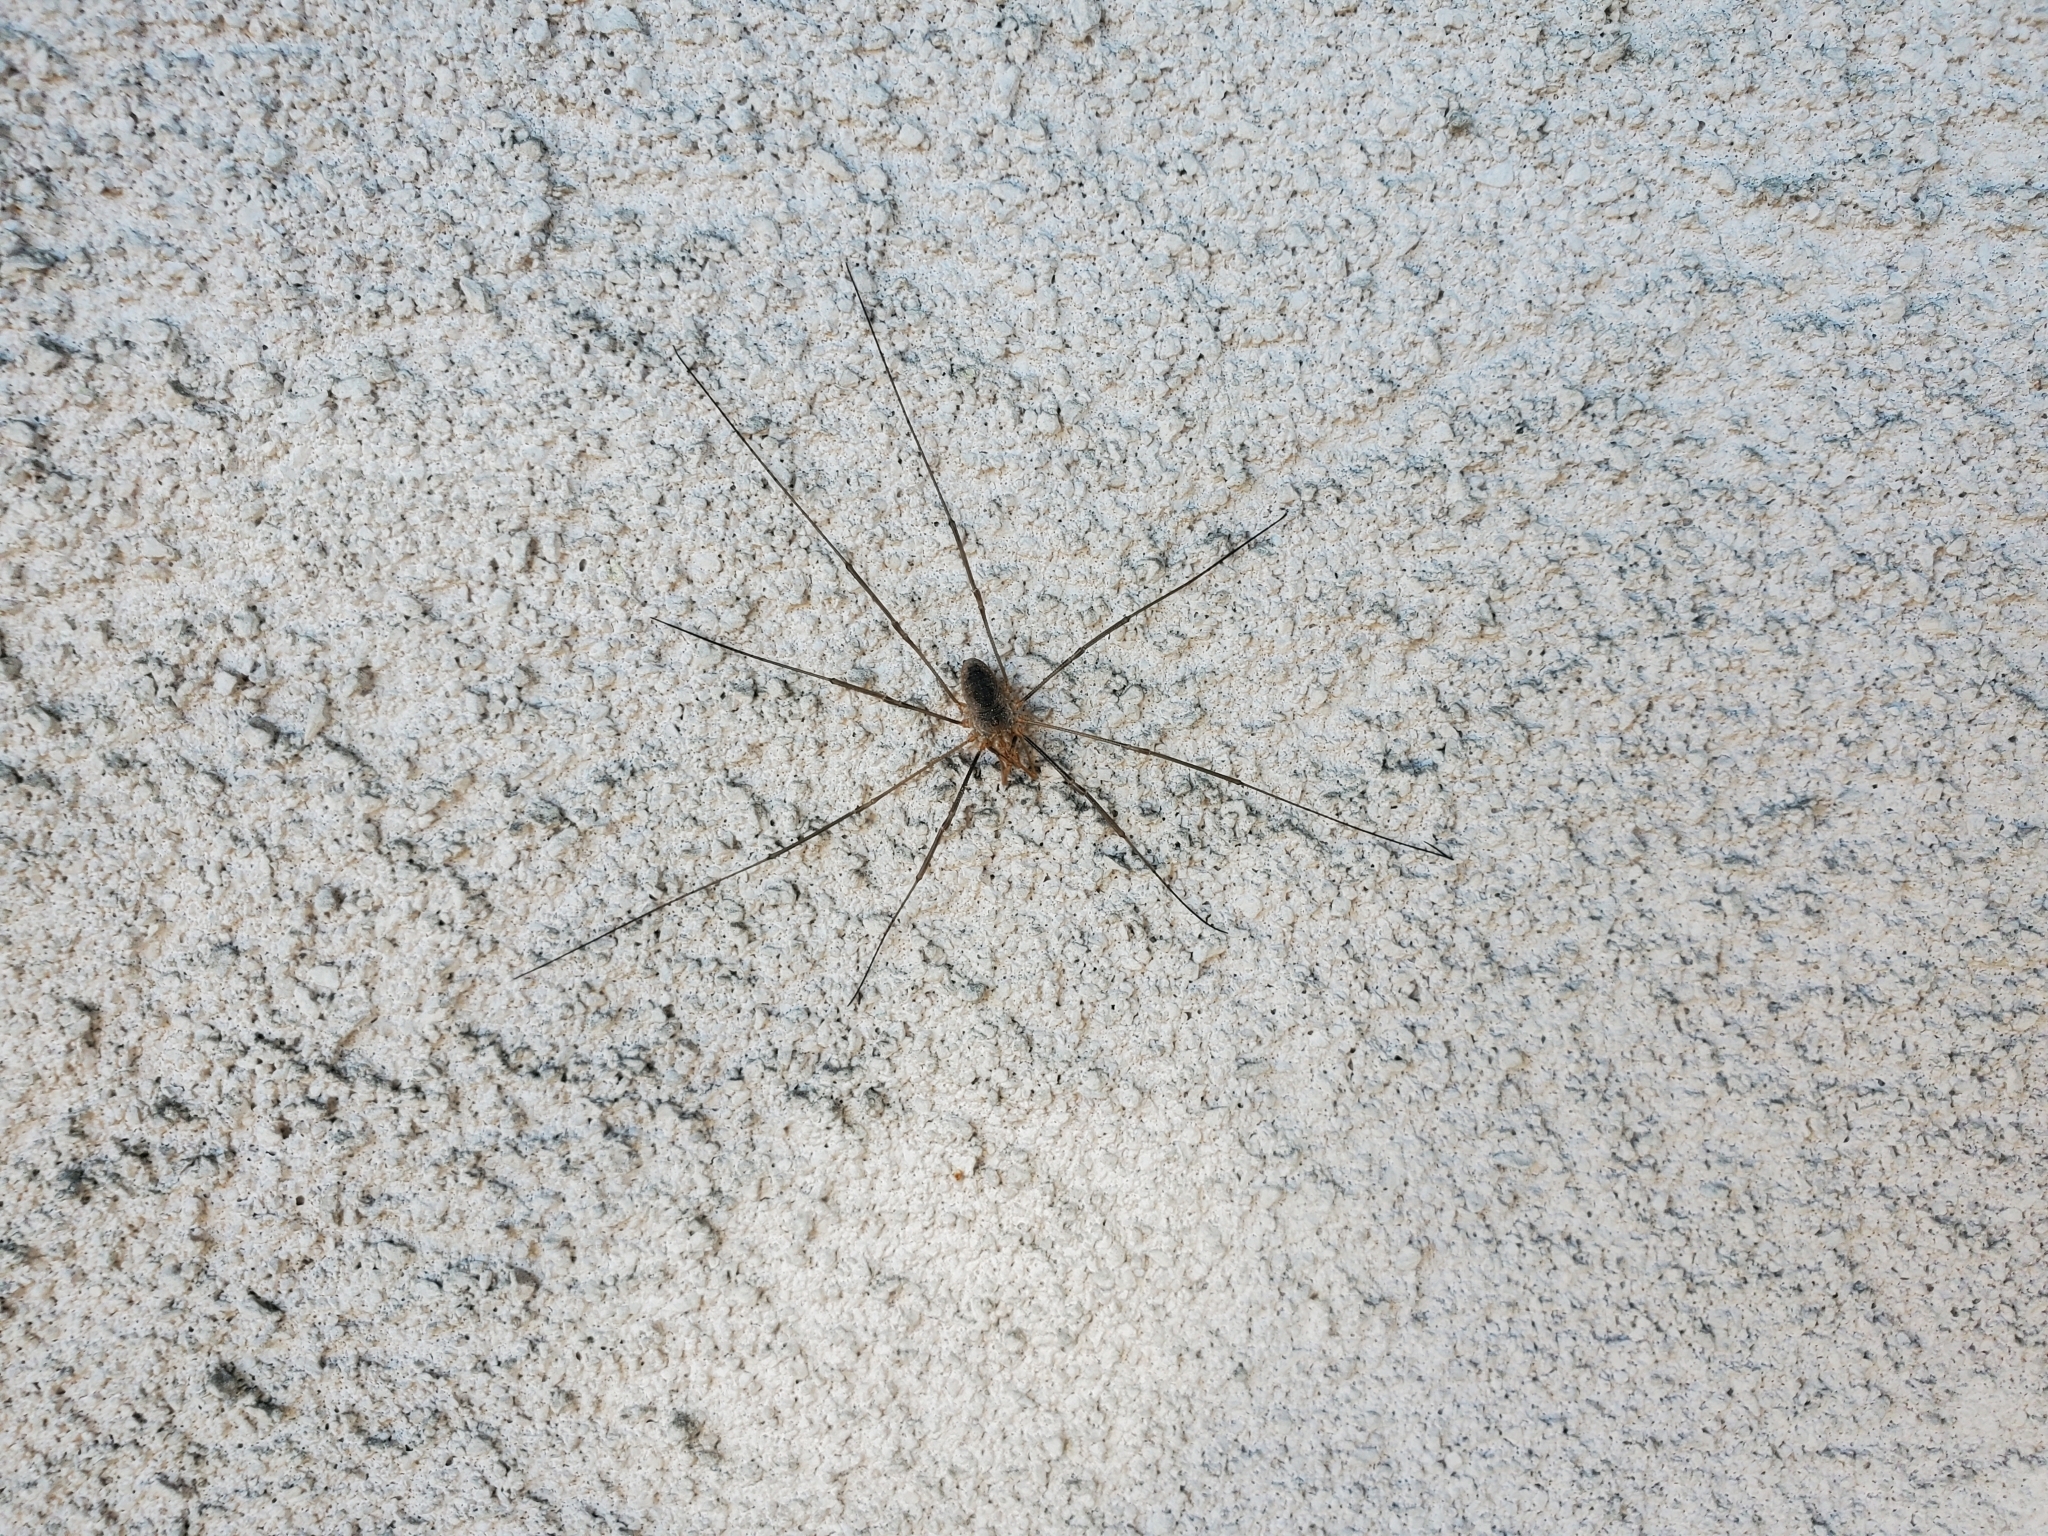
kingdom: Animalia
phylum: Arthropoda
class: Arachnida
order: Opiliones
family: Phalangiidae
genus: Phalangium
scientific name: Phalangium opilio
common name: Daddy longleg
